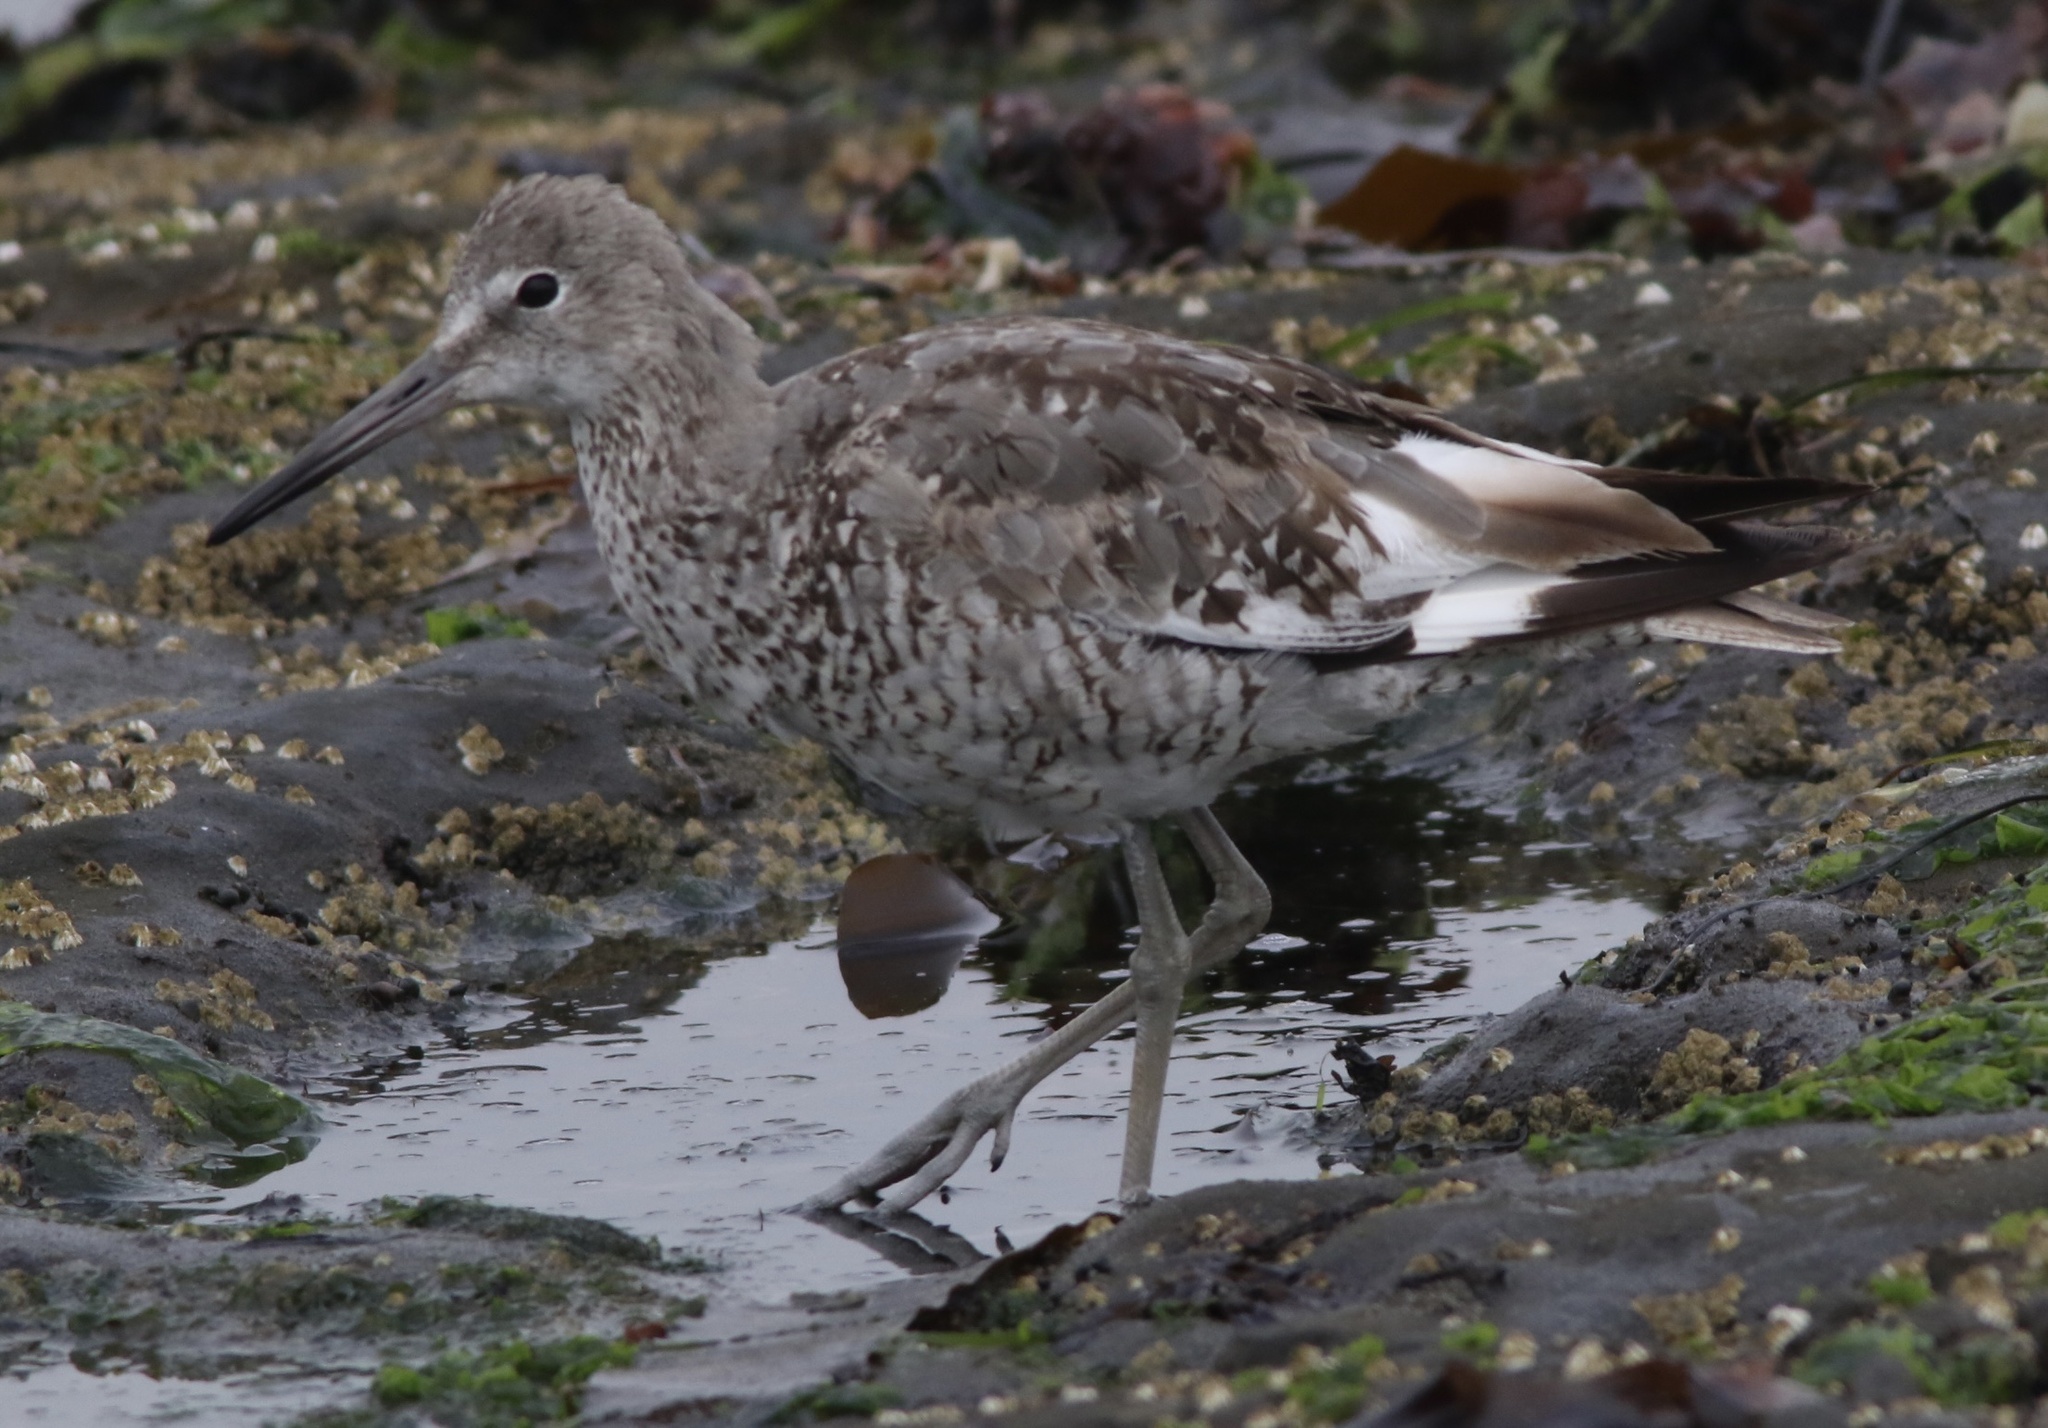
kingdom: Animalia
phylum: Chordata
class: Aves
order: Charadriiformes
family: Scolopacidae
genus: Tringa
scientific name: Tringa semipalmata
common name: Willet
